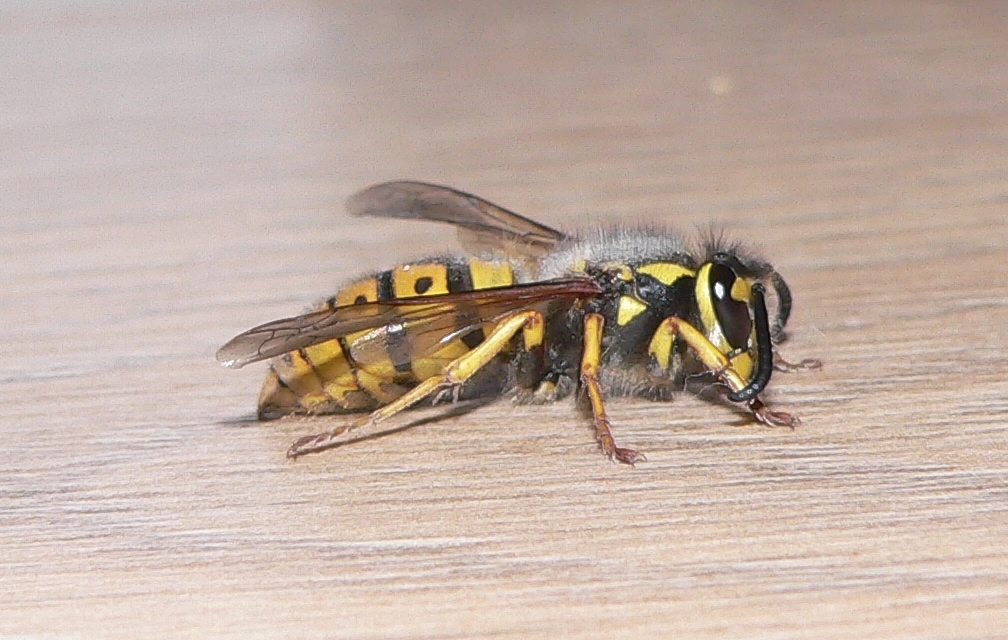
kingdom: Animalia
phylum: Arthropoda
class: Insecta
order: Hymenoptera
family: Vespidae
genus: Vespula
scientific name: Vespula germanica
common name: German wasp
